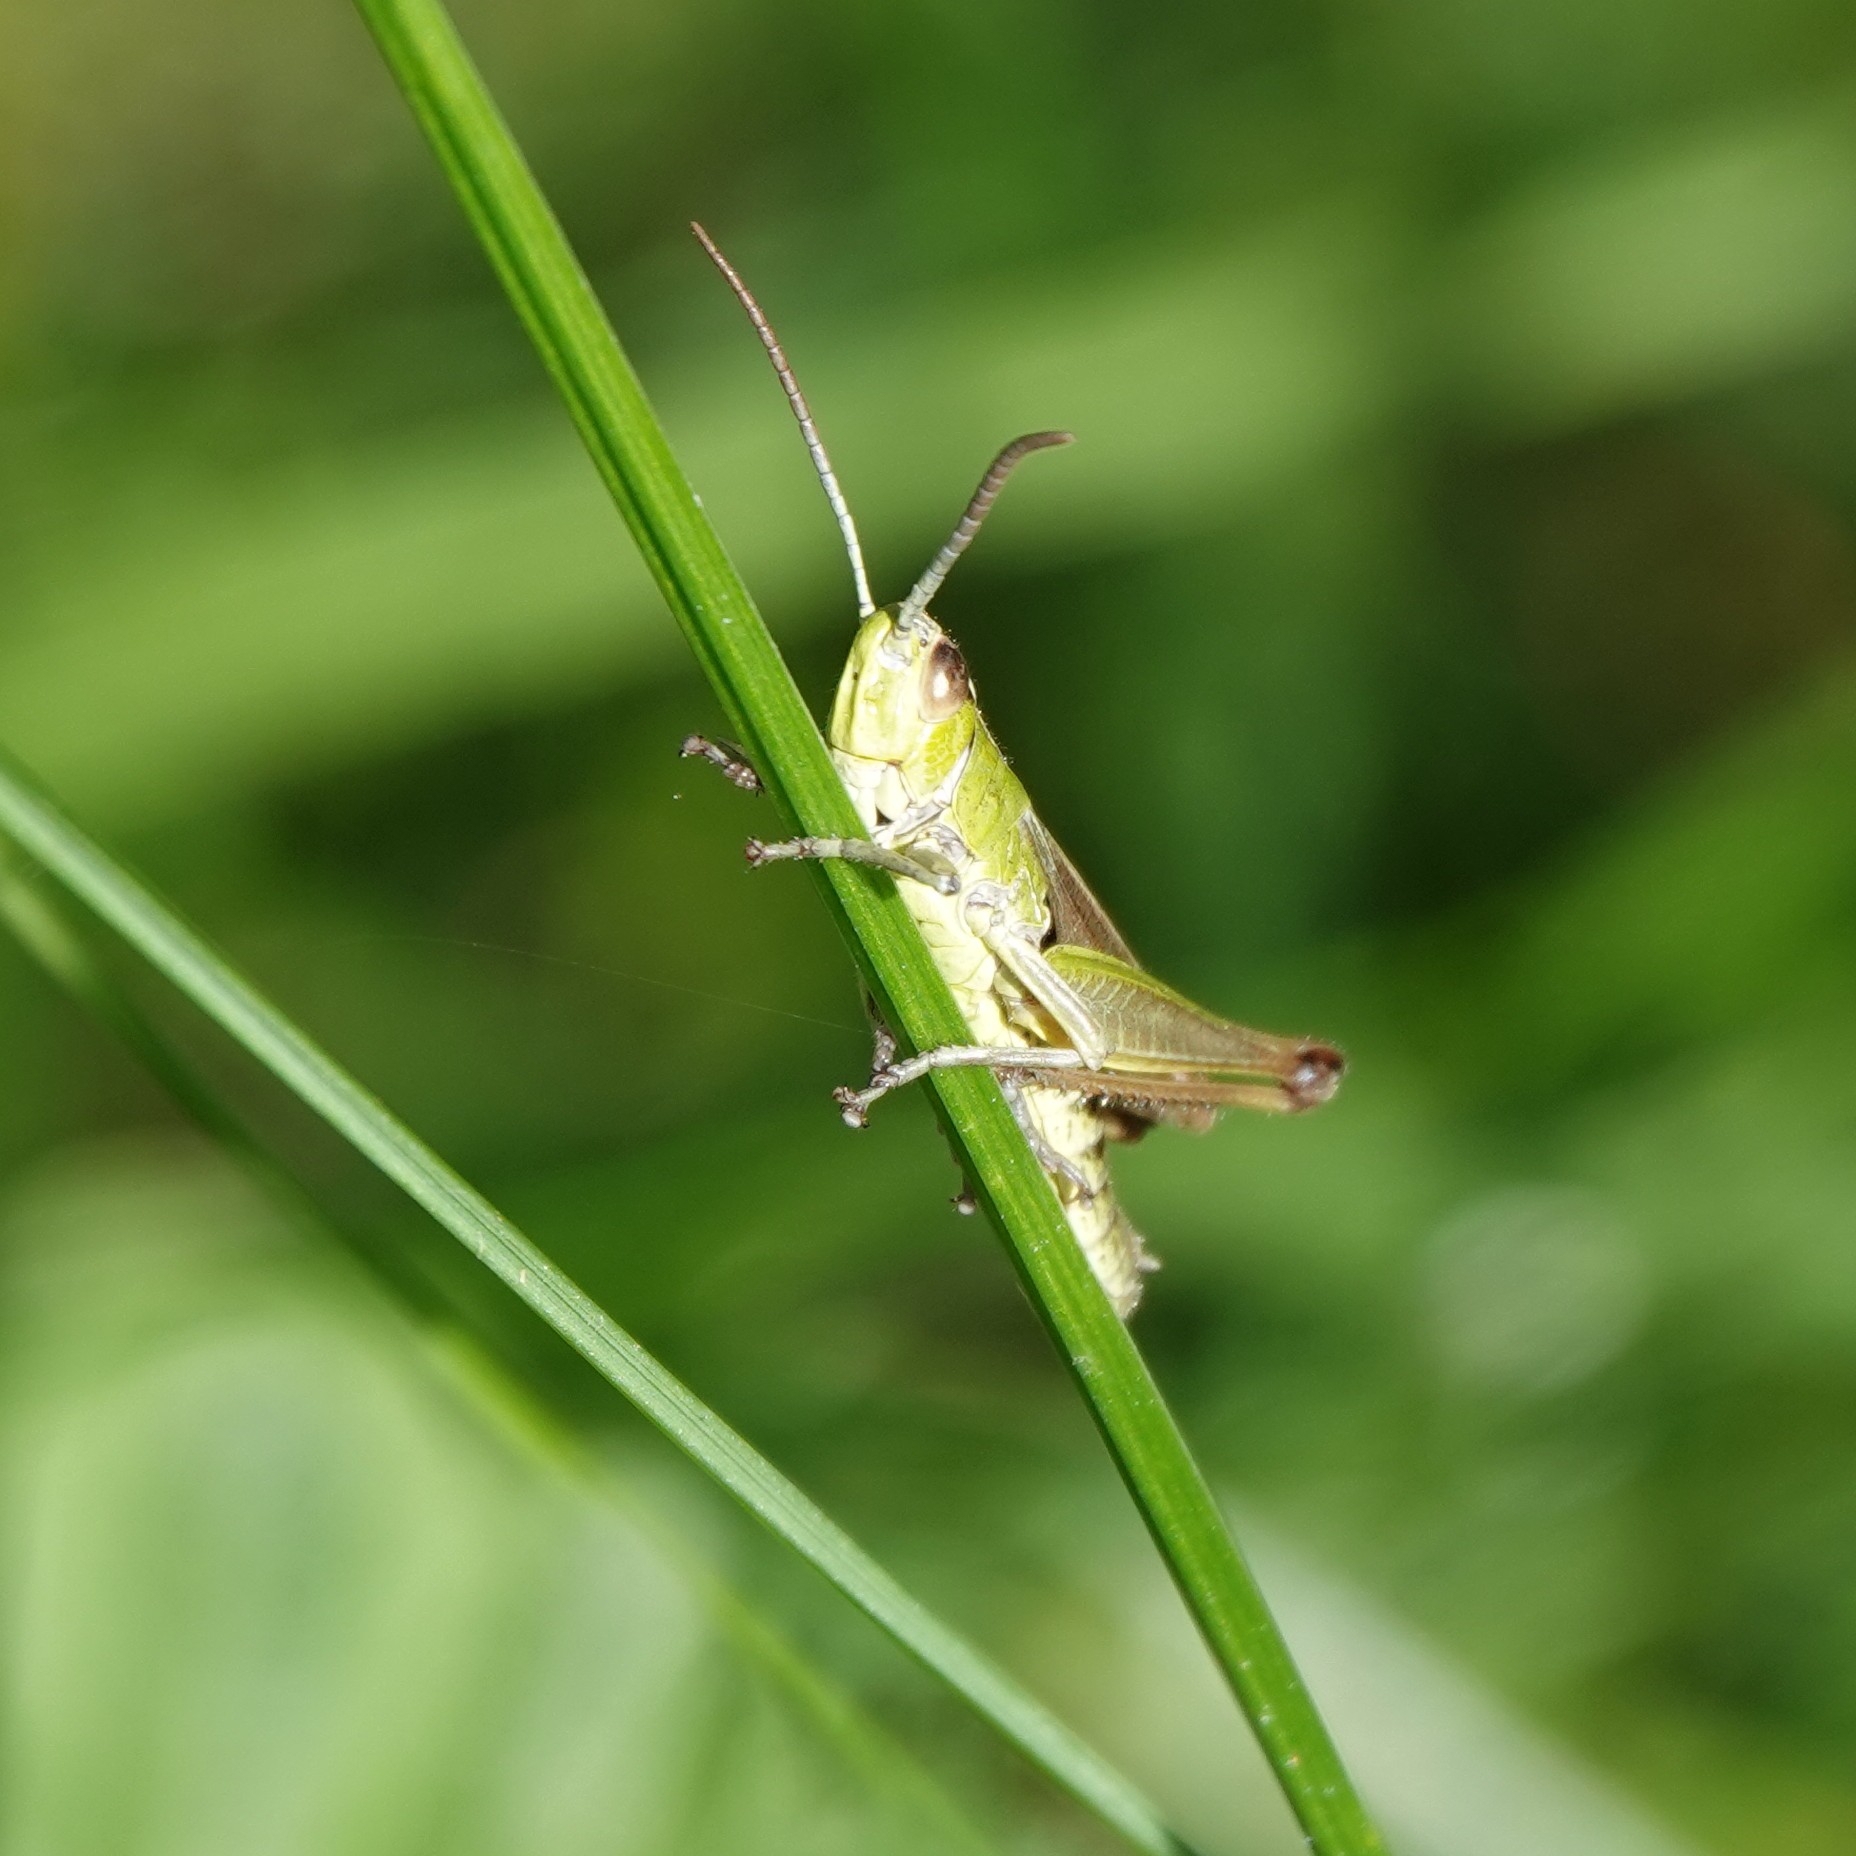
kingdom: Animalia
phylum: Arthropoda
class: Insecta
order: Orthoptera
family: Acrididae
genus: Pseudochorthippus
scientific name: Pseudochorthippus parallelus
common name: Meadow grasshopper
